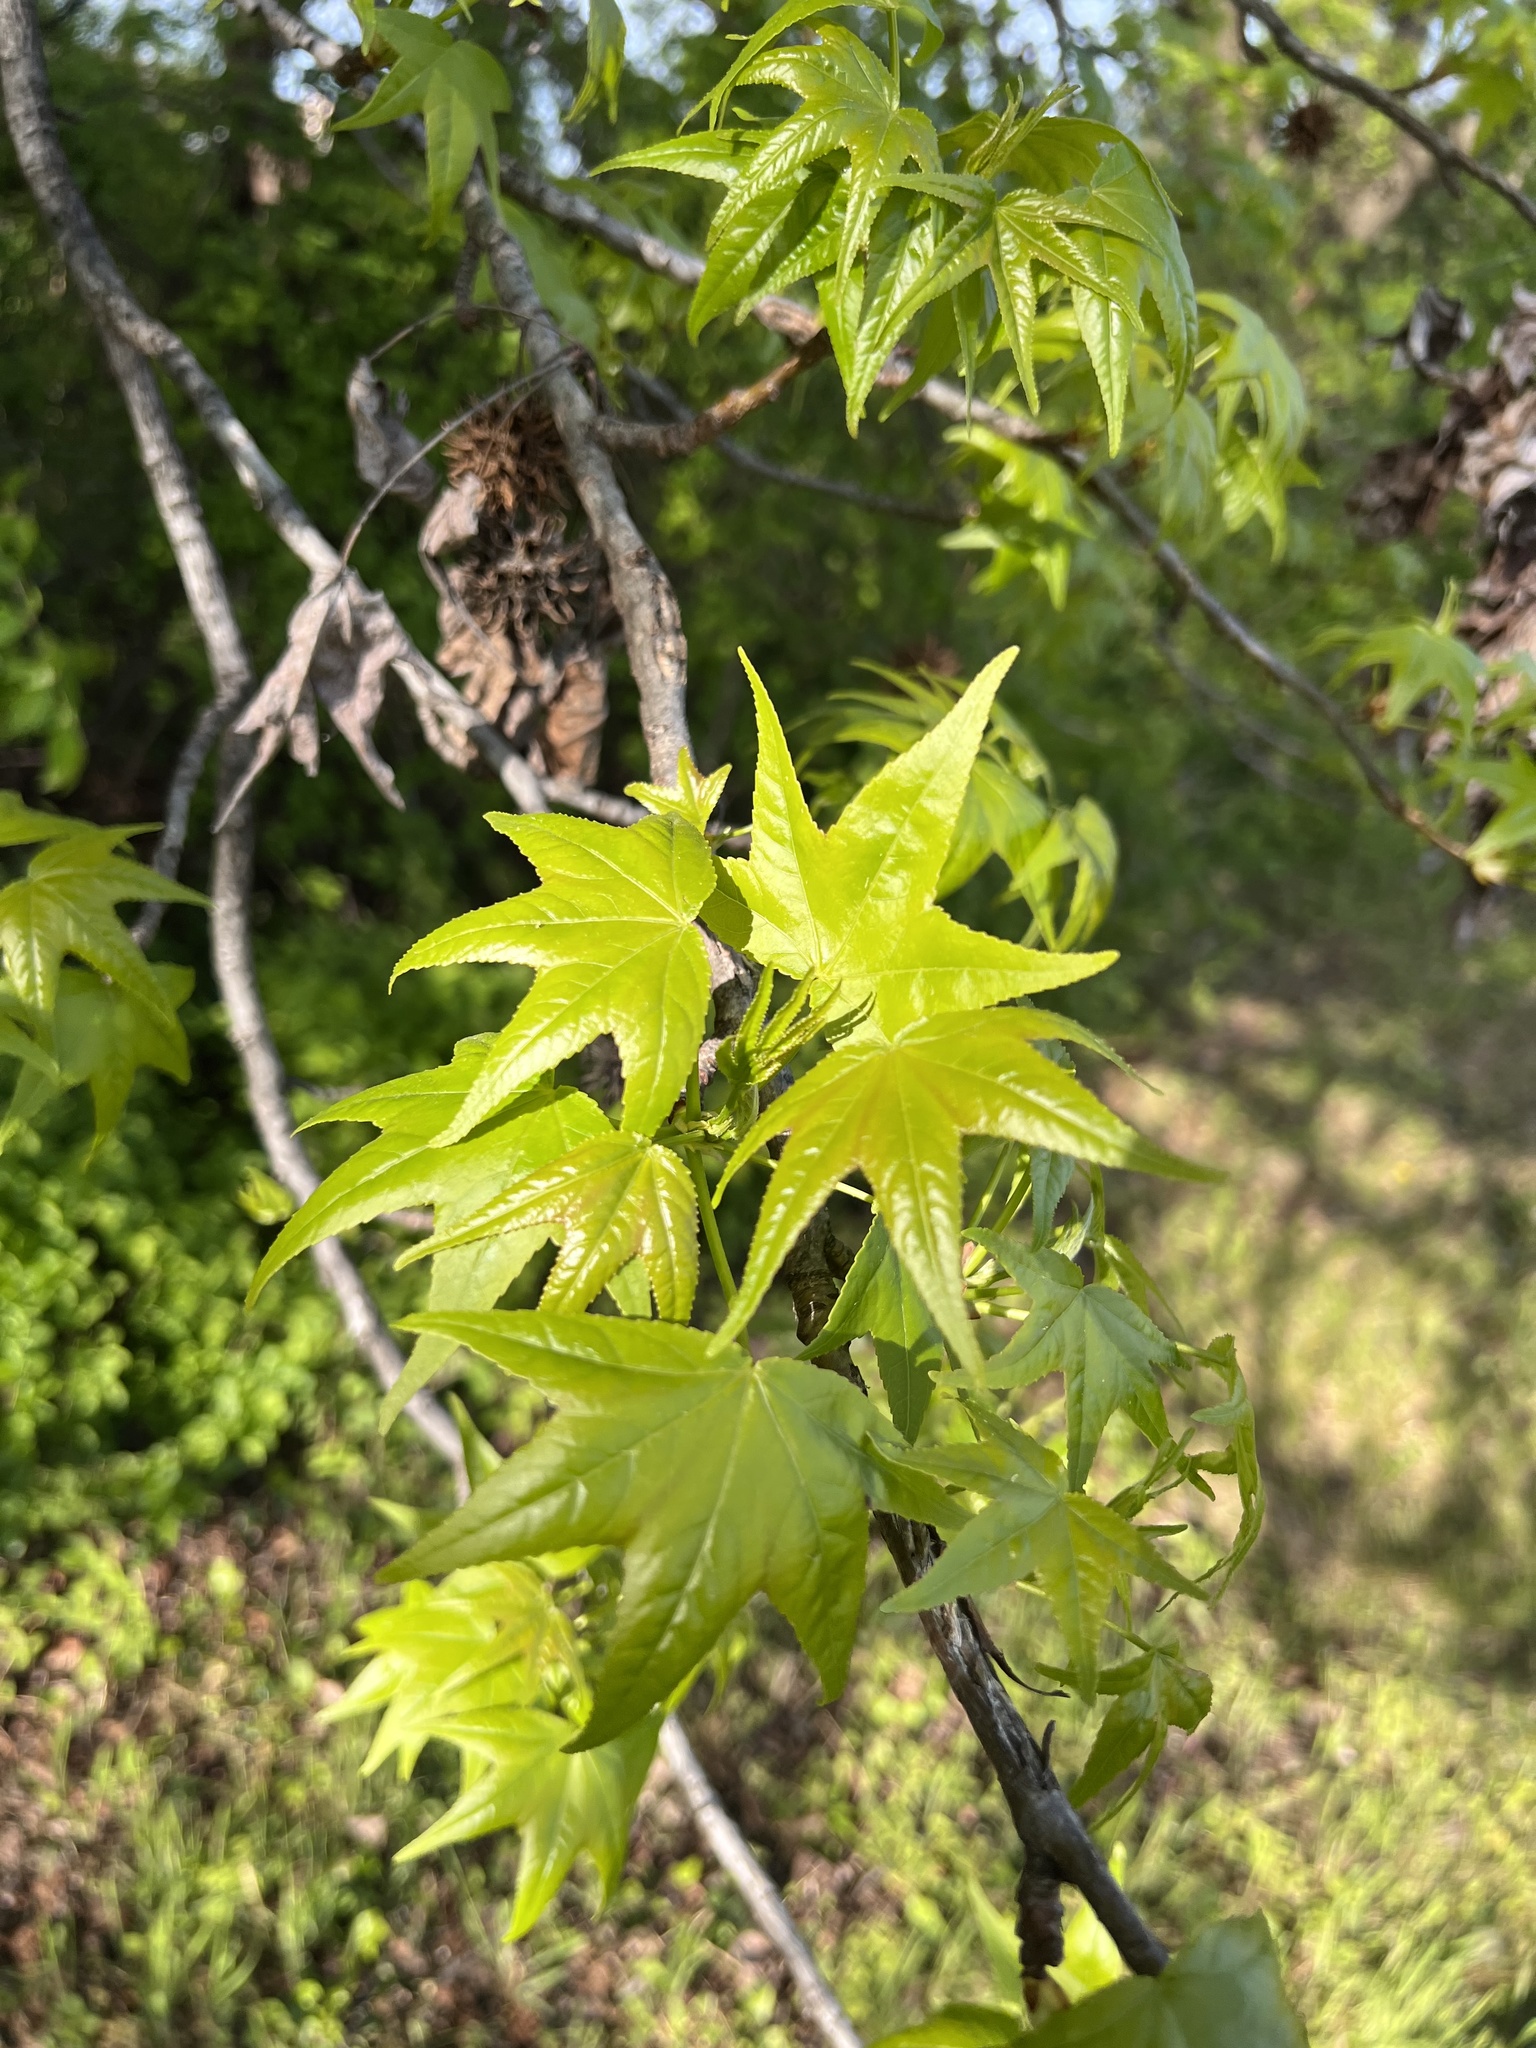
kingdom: Plantae
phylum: Tracheophyta
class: Magnoliopsida
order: Saxifragales
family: Altingiaceae
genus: Liquidambar
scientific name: Liquidambar styraciflua
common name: Sweet gum
